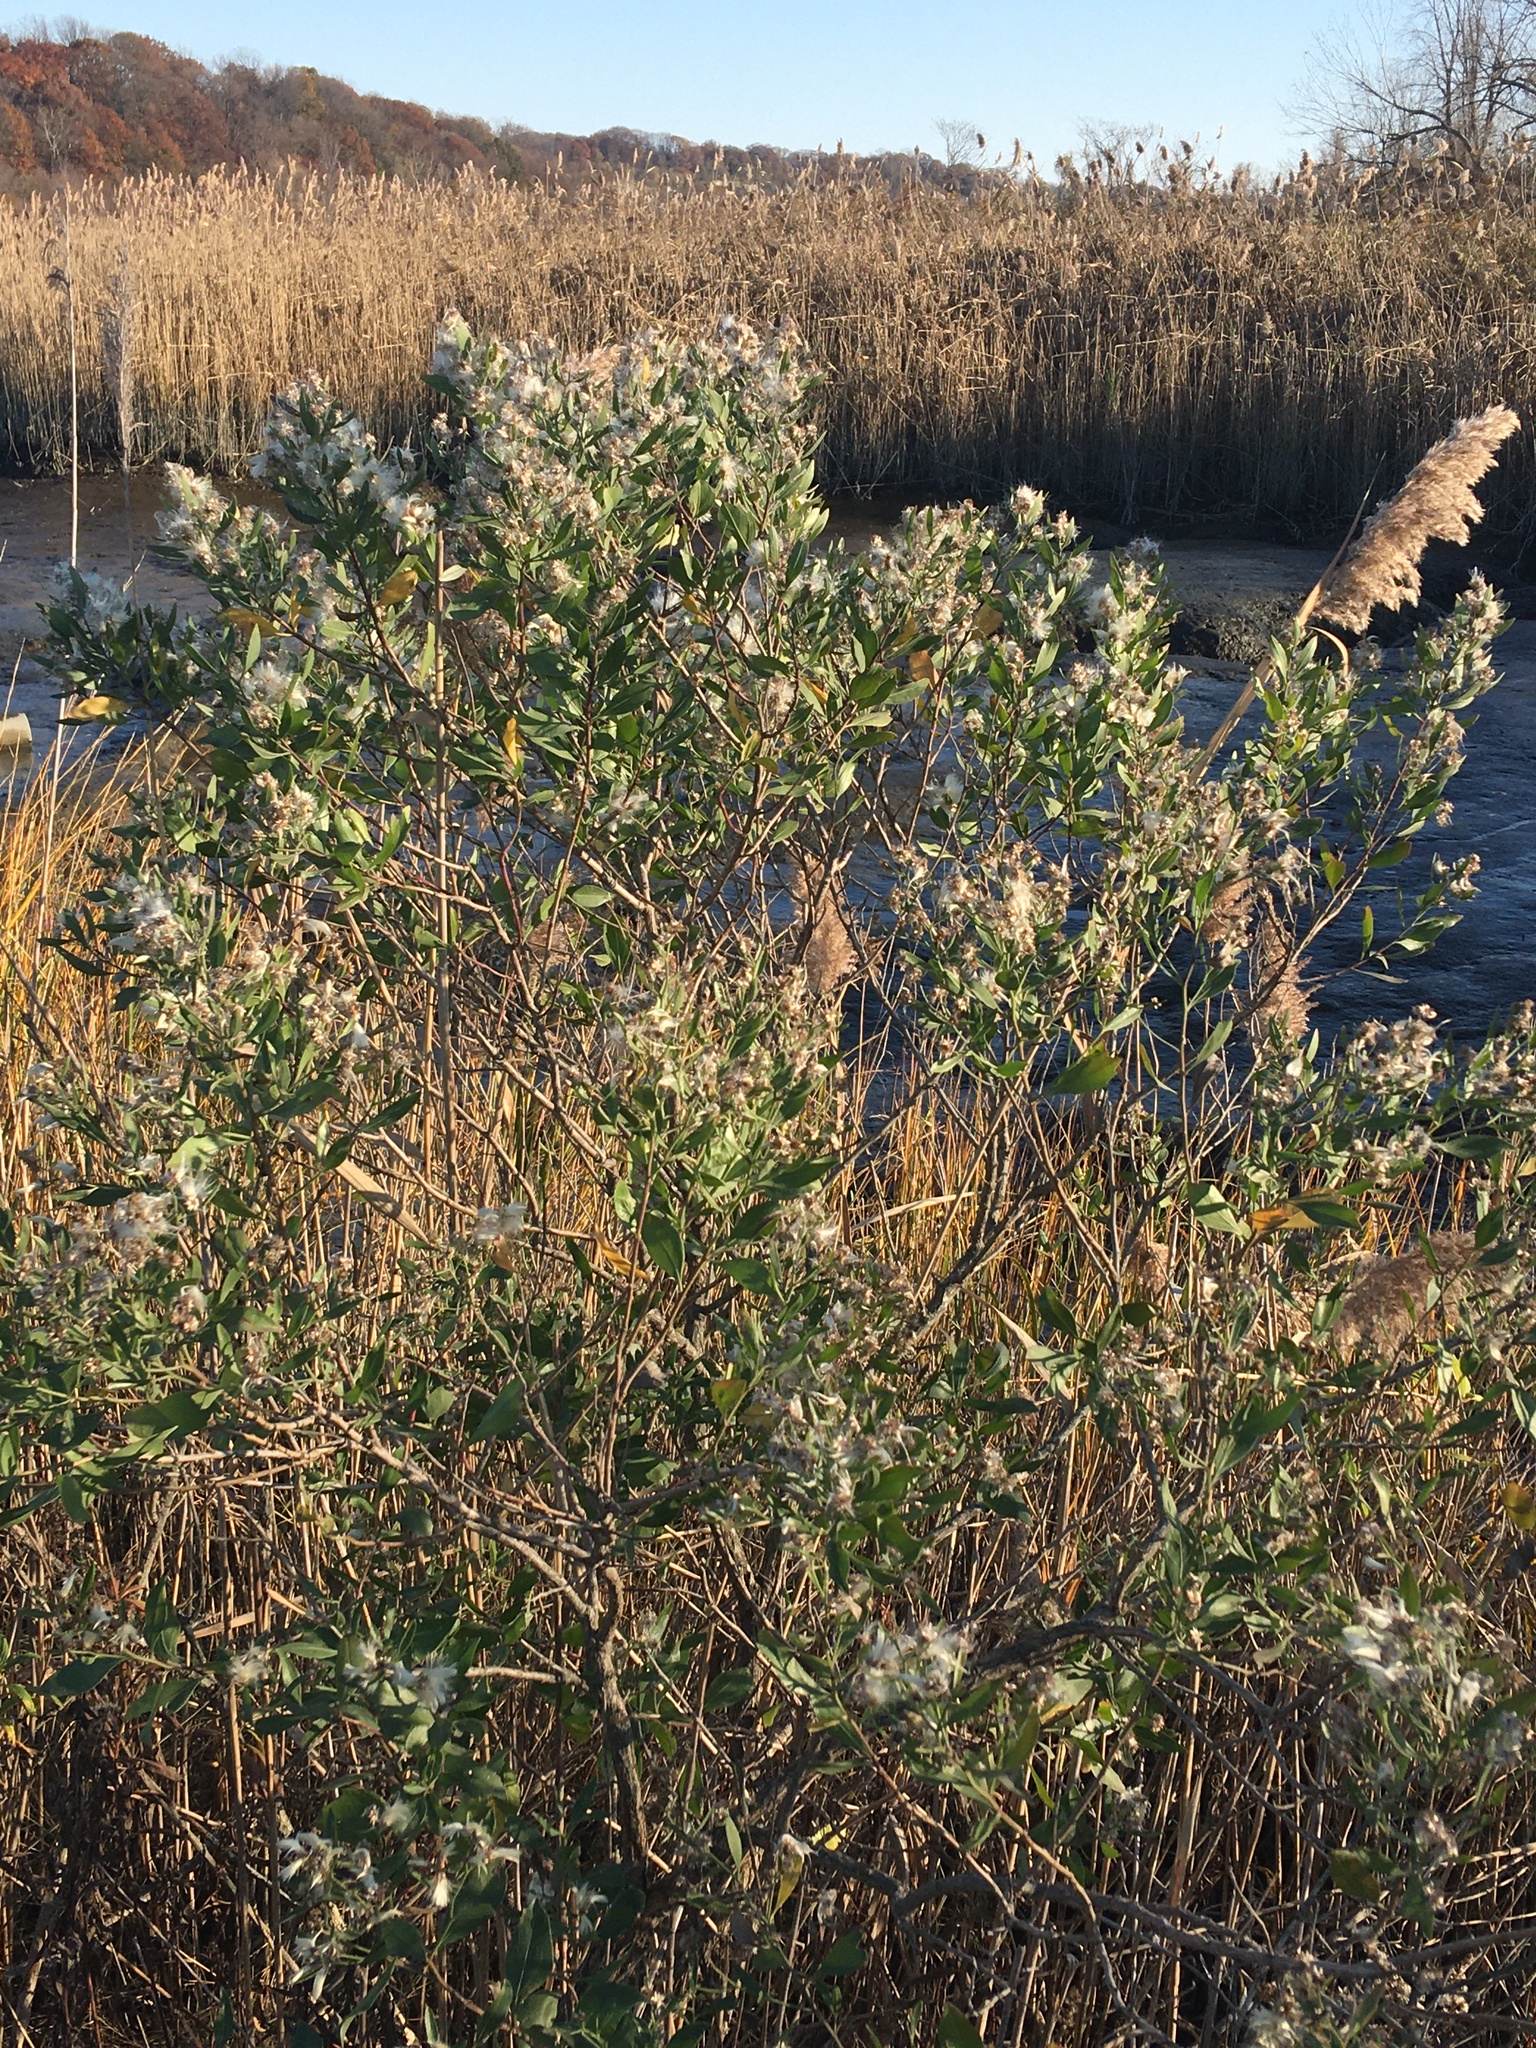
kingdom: Plantae
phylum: Tracheophyta
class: Magnoliopsida
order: Asterales
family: Asteraceae
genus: Baccharis
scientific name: Baccharis halimifolia
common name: Eastern baccharis
